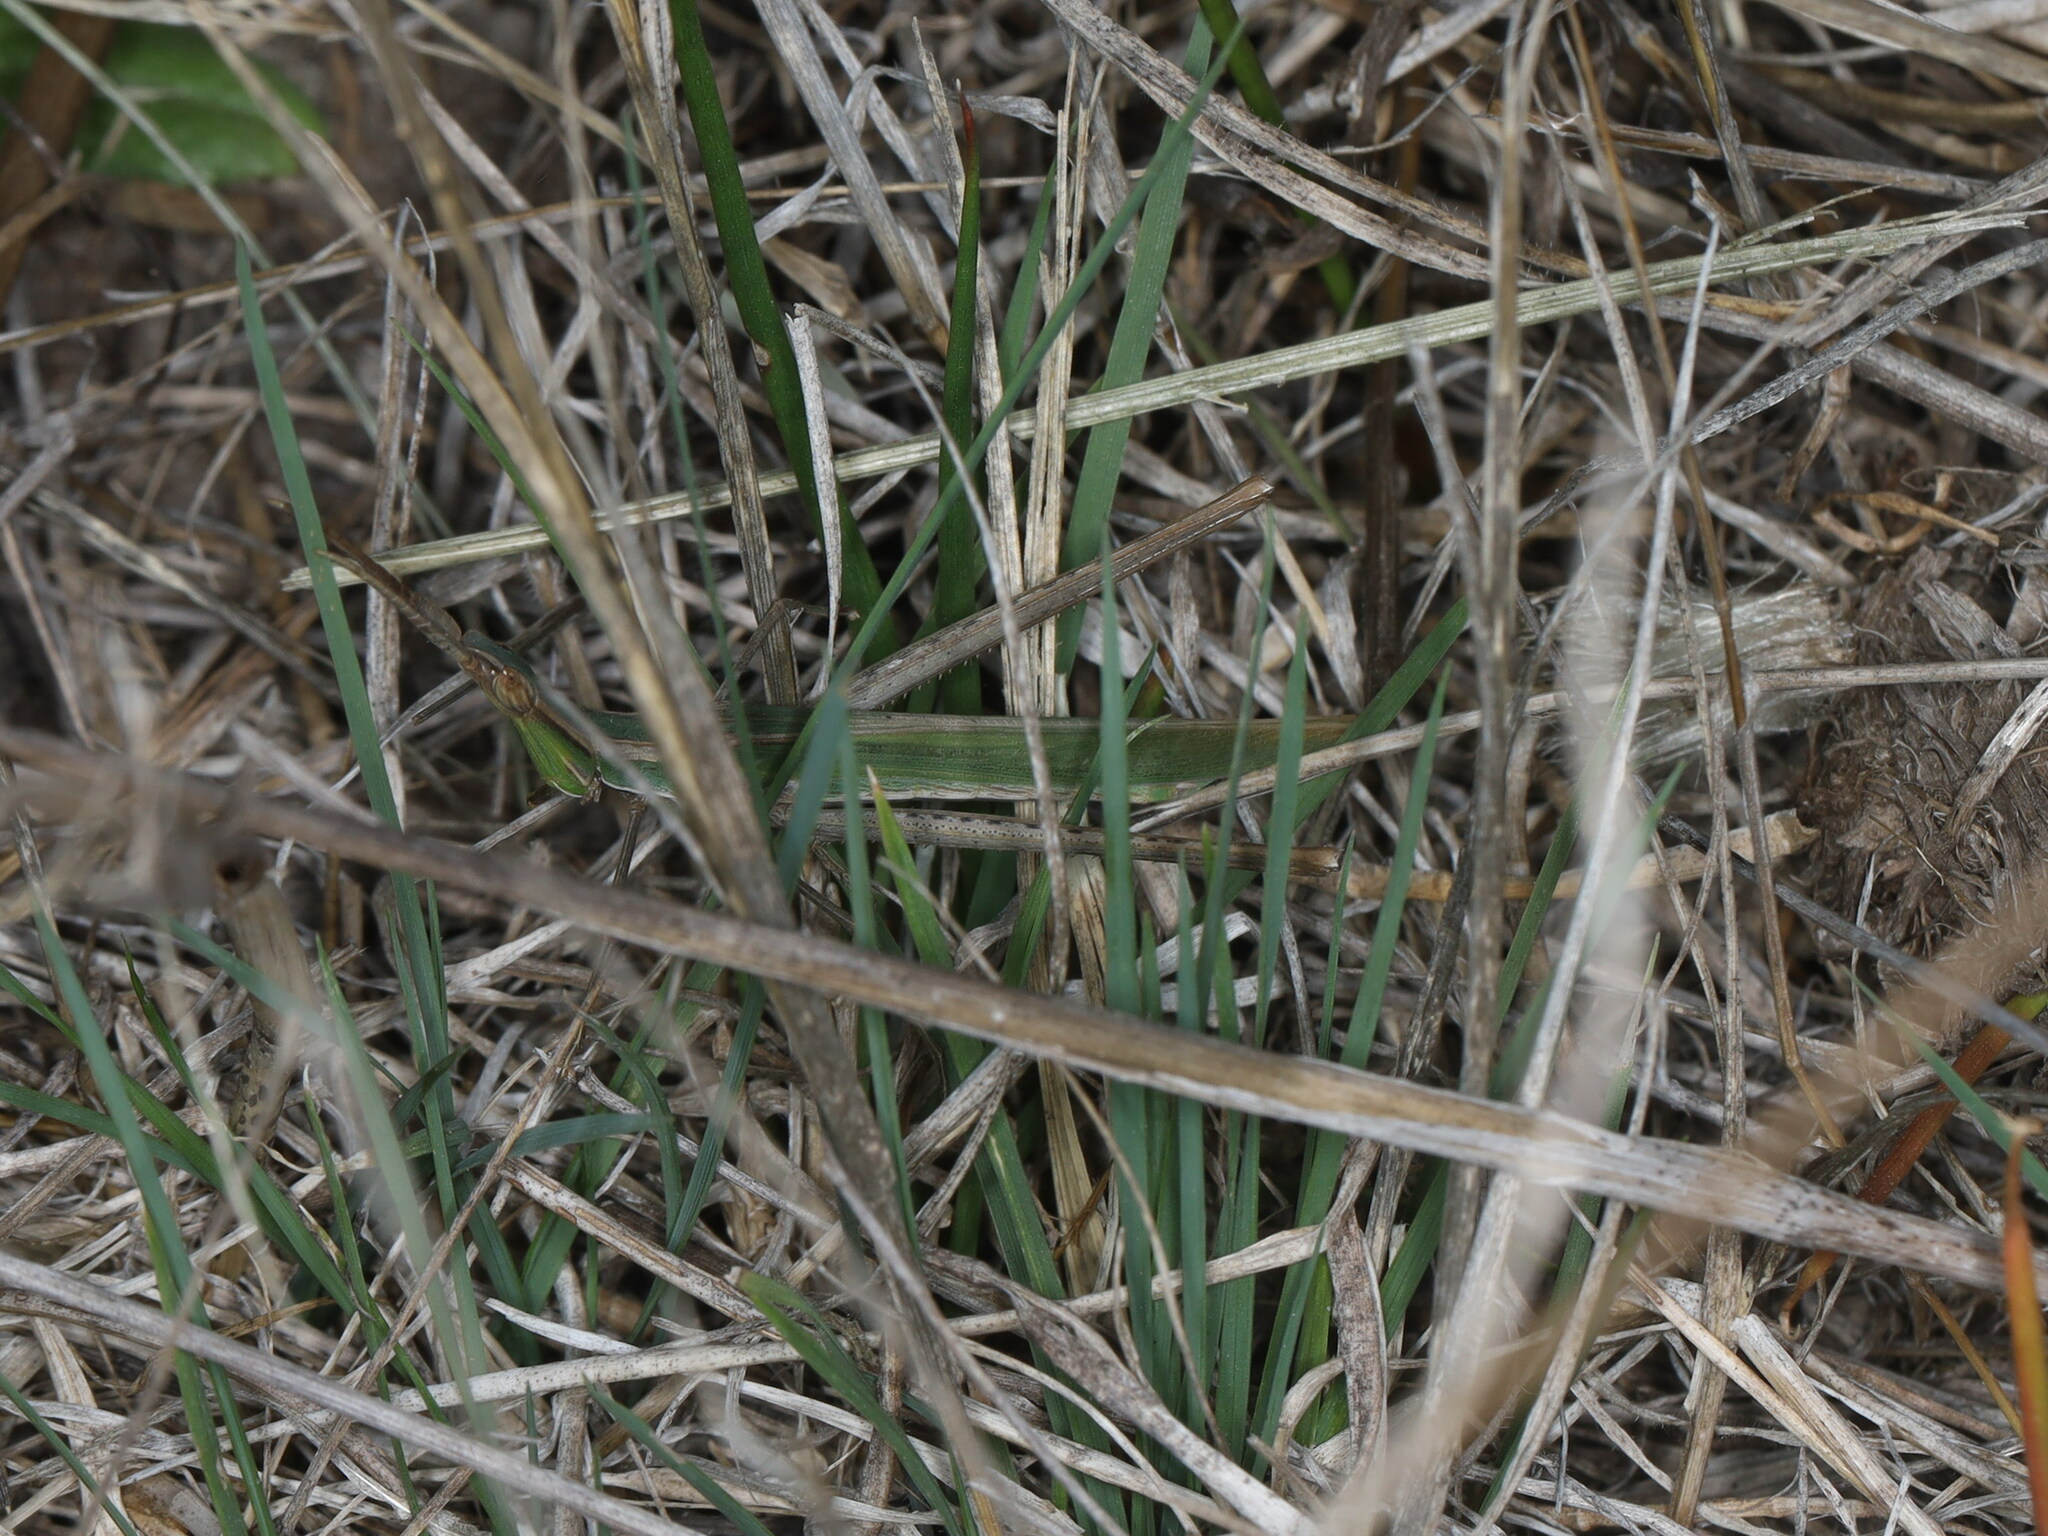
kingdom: Animalia
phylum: Arthropoda
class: Insecta
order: Orthoptera
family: Acrididae
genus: Acrida
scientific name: Acrida ungarica
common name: Common cone-headed grasshopper
